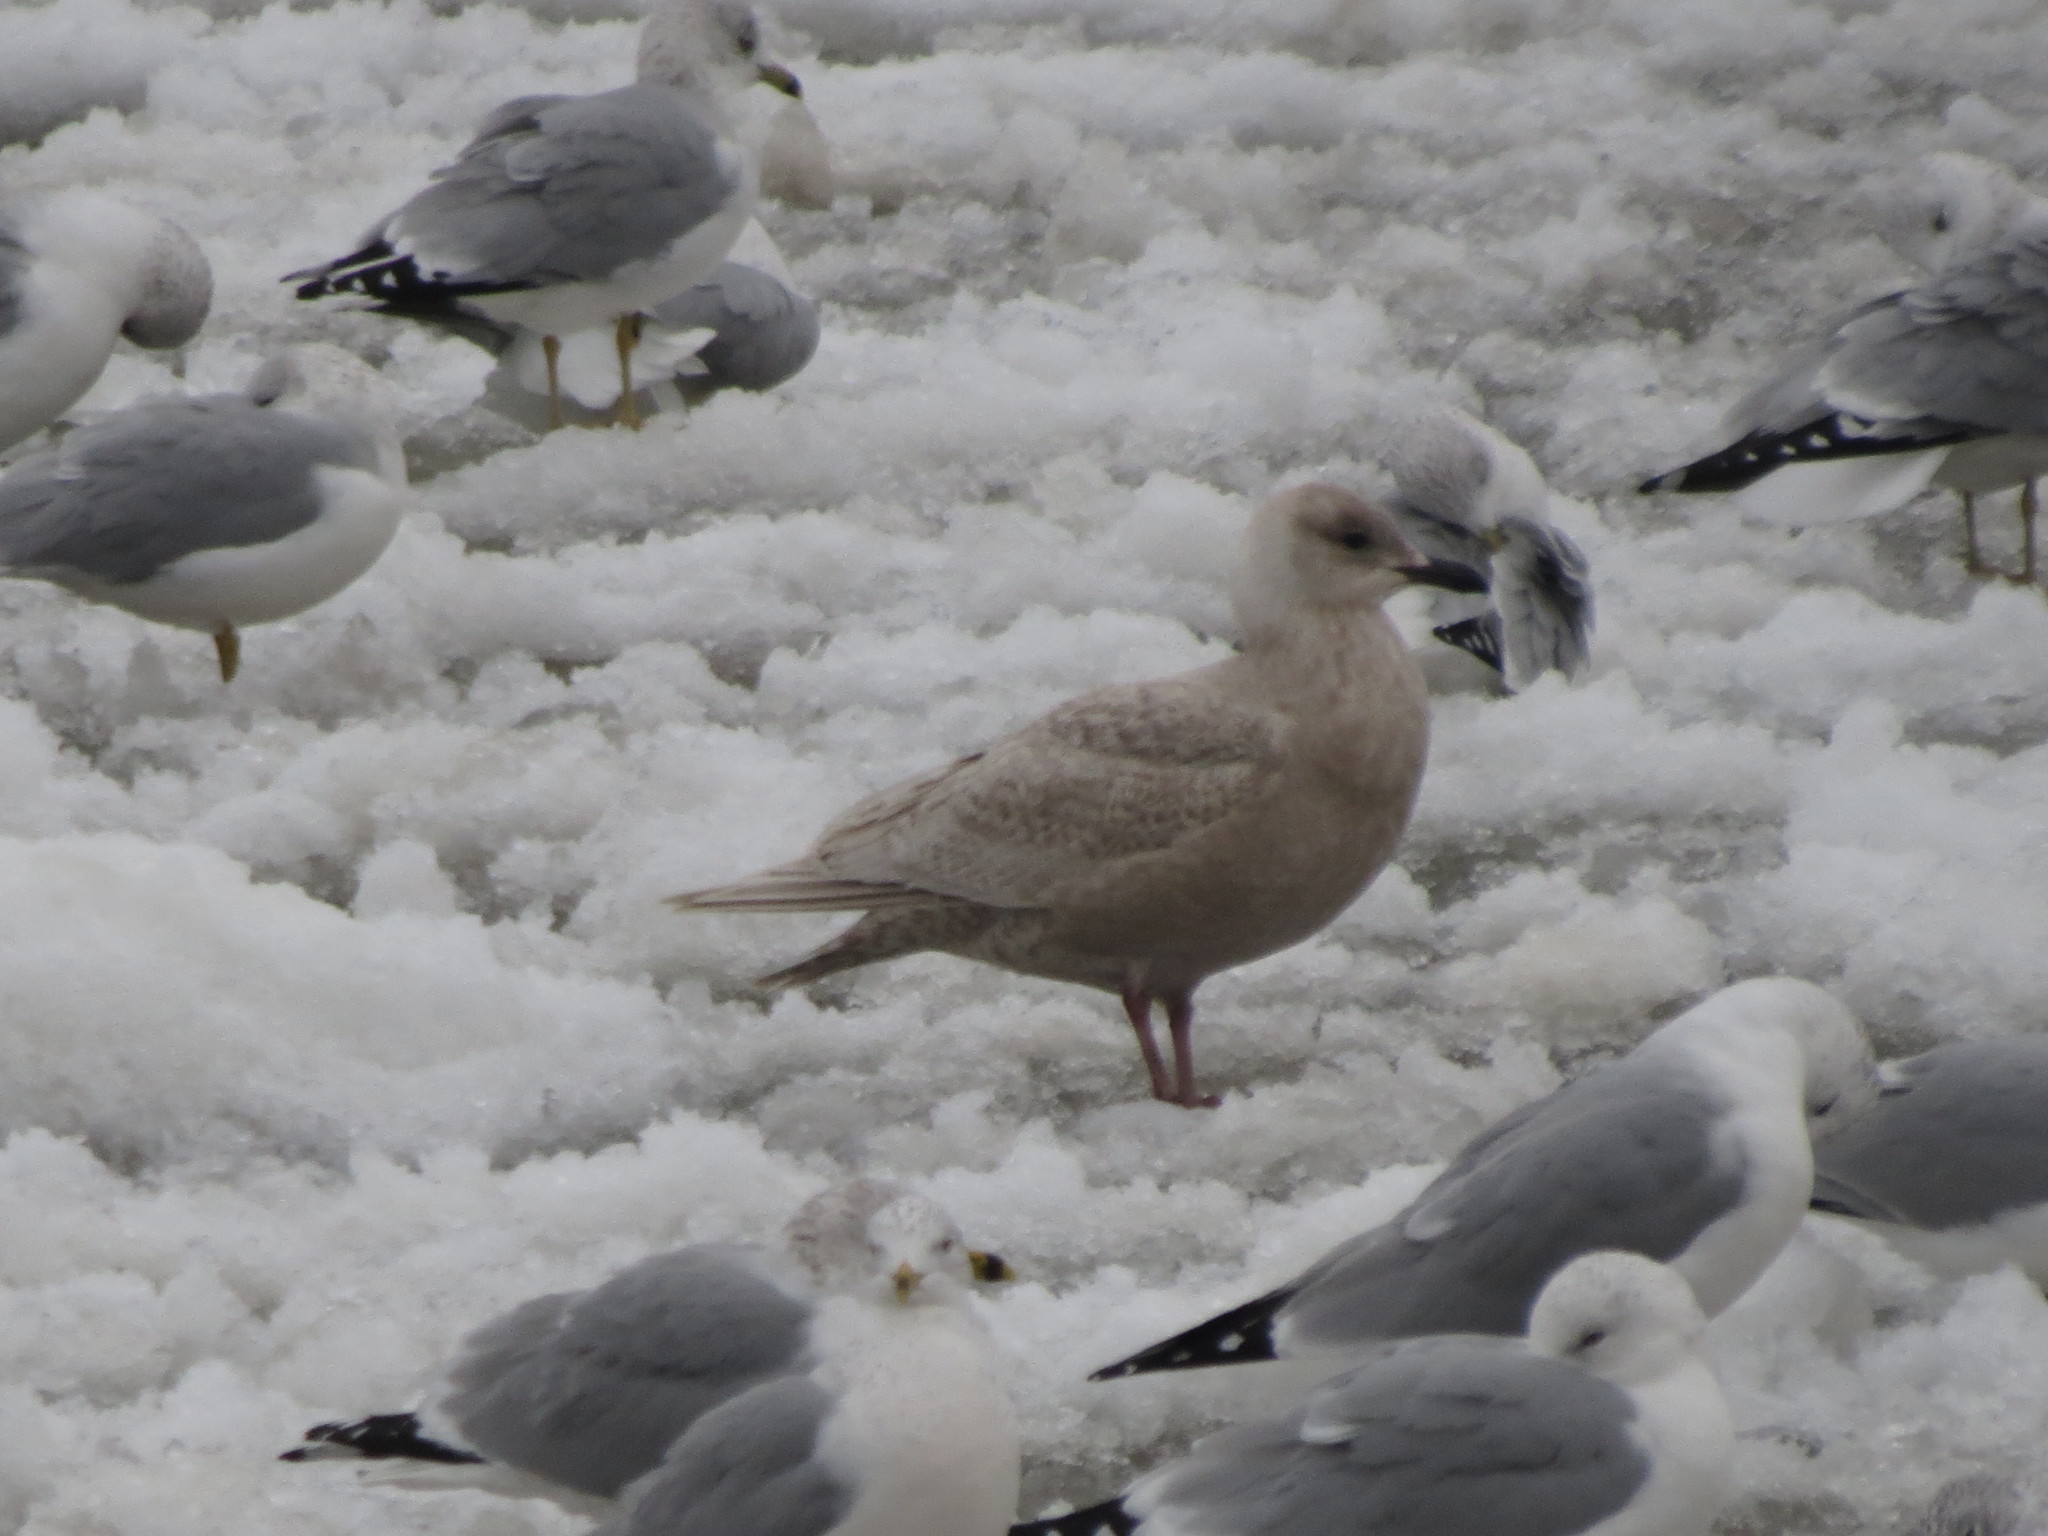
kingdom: Animalia
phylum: Chordata
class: Aves
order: Charadriiformes
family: Laridae
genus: Larus
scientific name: Larus glaucoides
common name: Iceland gull
